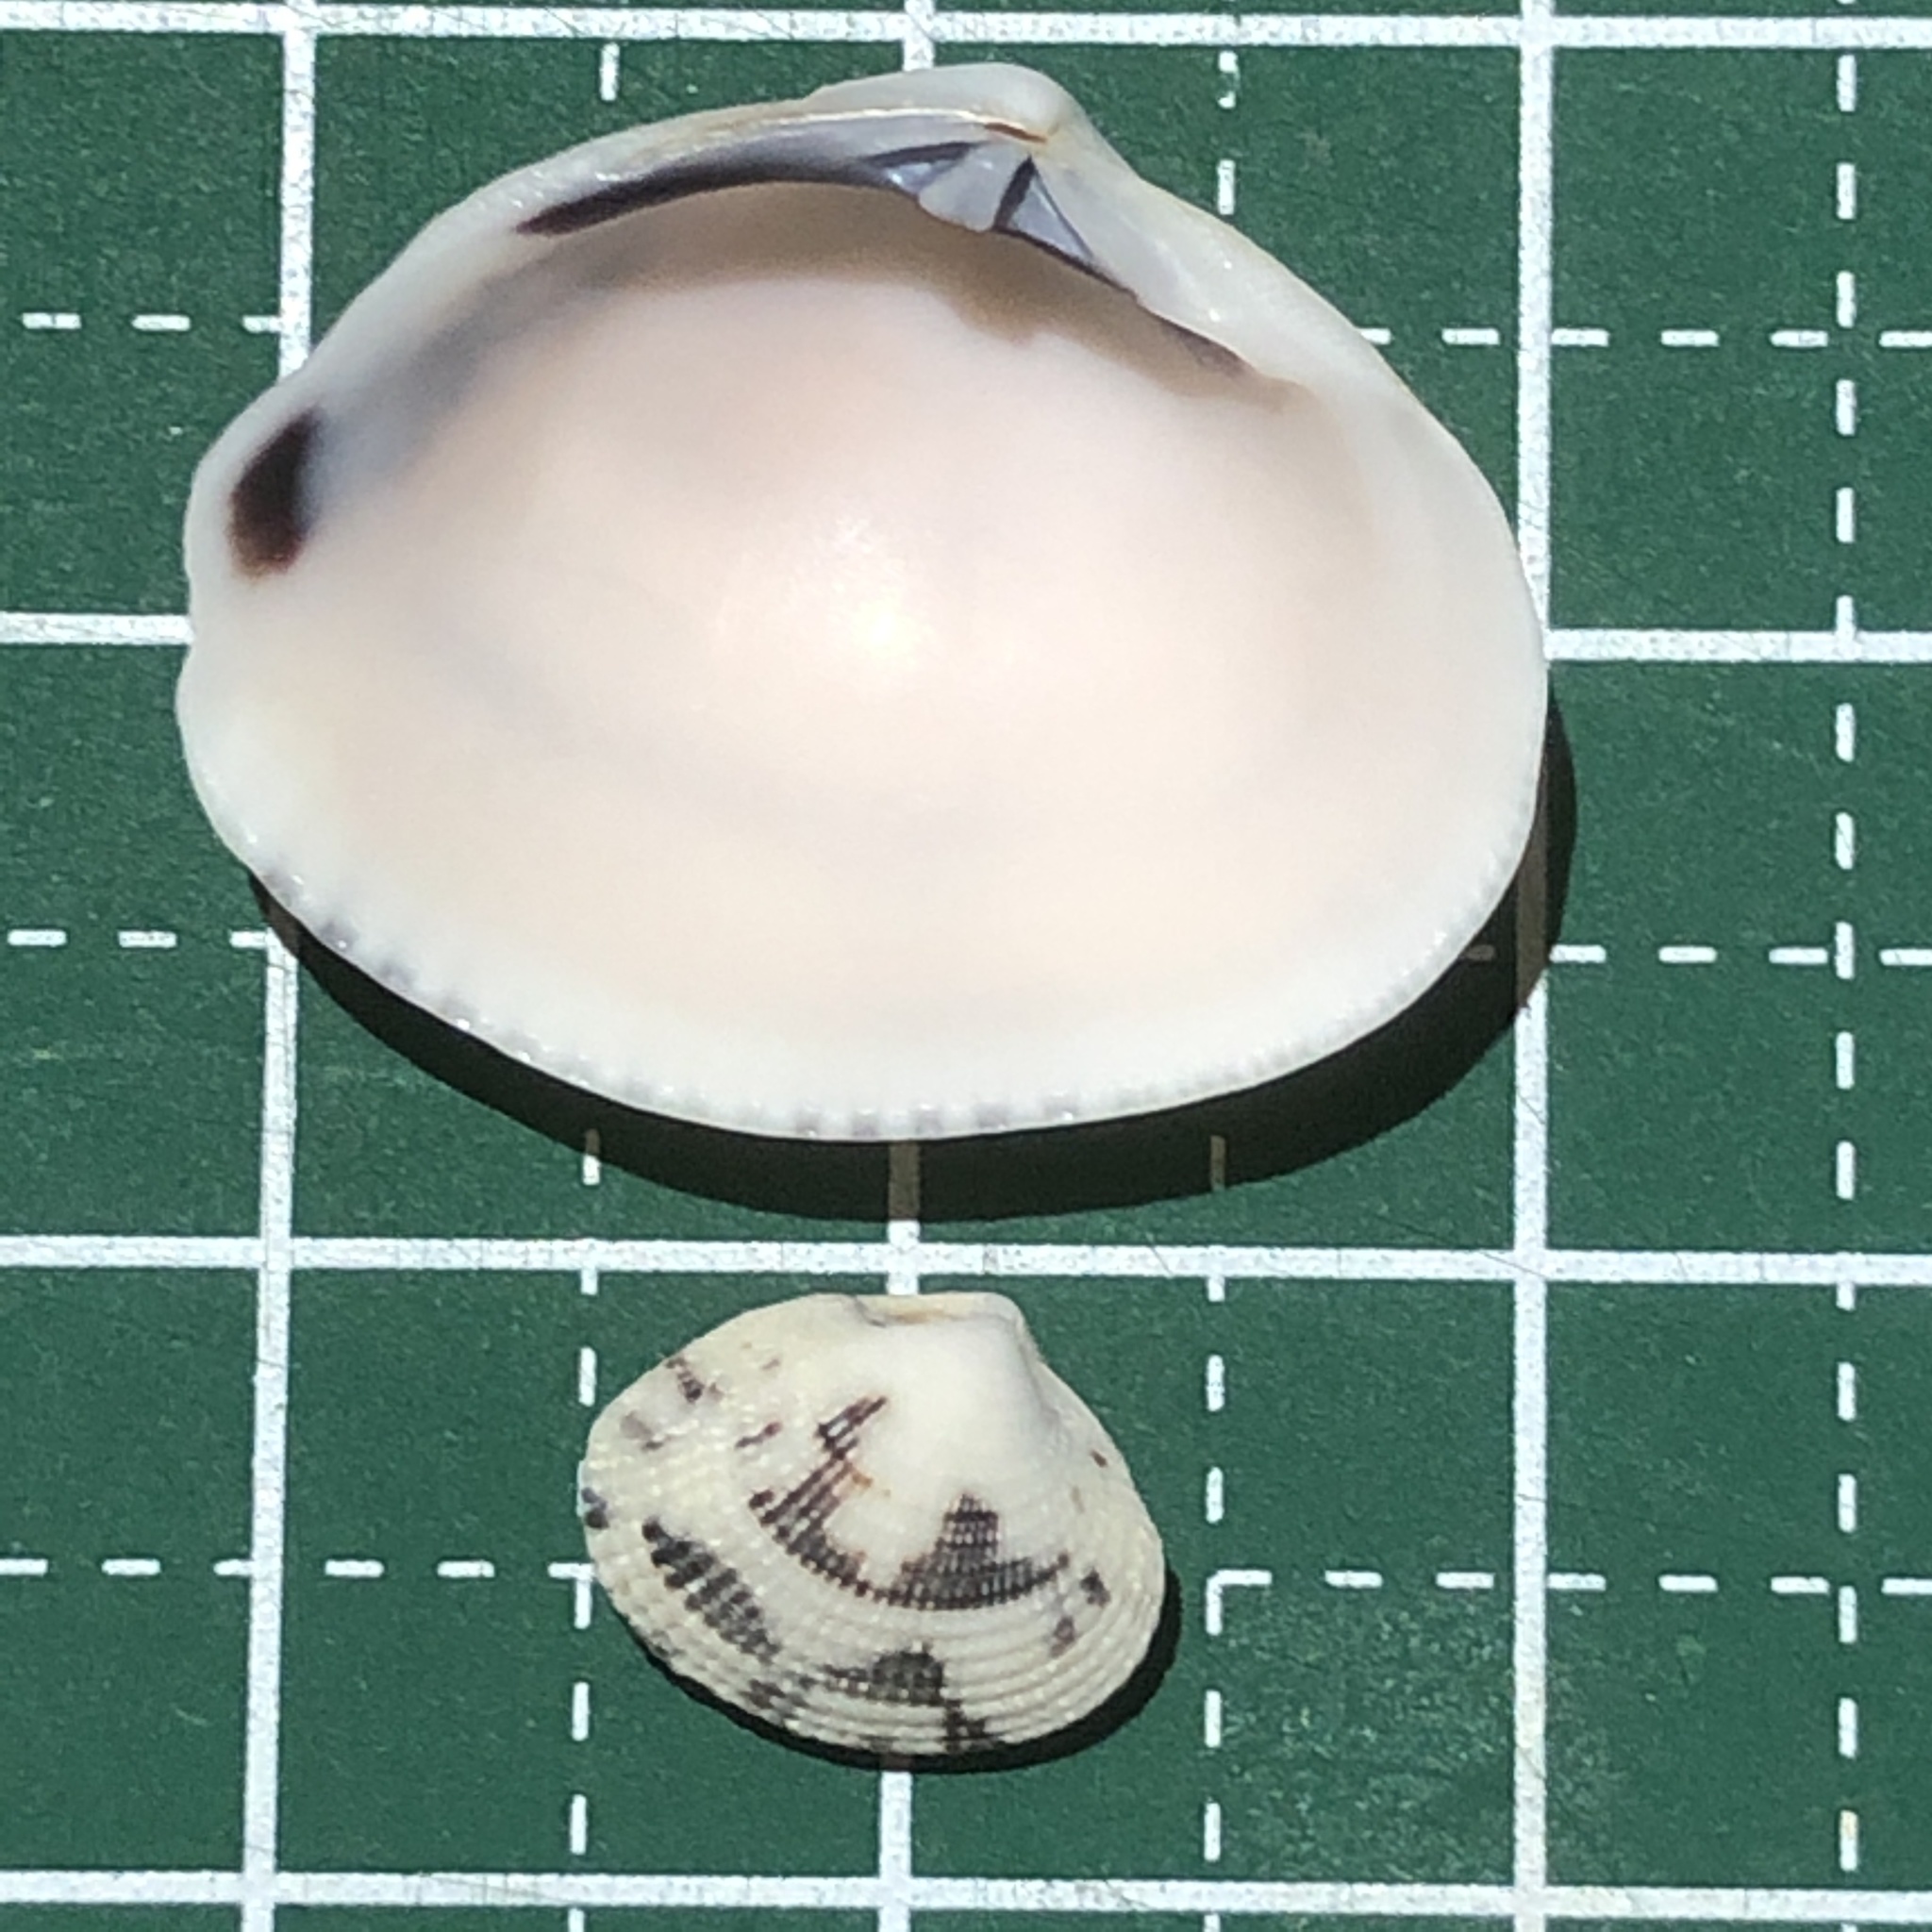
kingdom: Animalia
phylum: Mollusca
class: Bivalvia
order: Venerida
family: Veneridae
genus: Timoclea
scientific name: Timoclea marica
